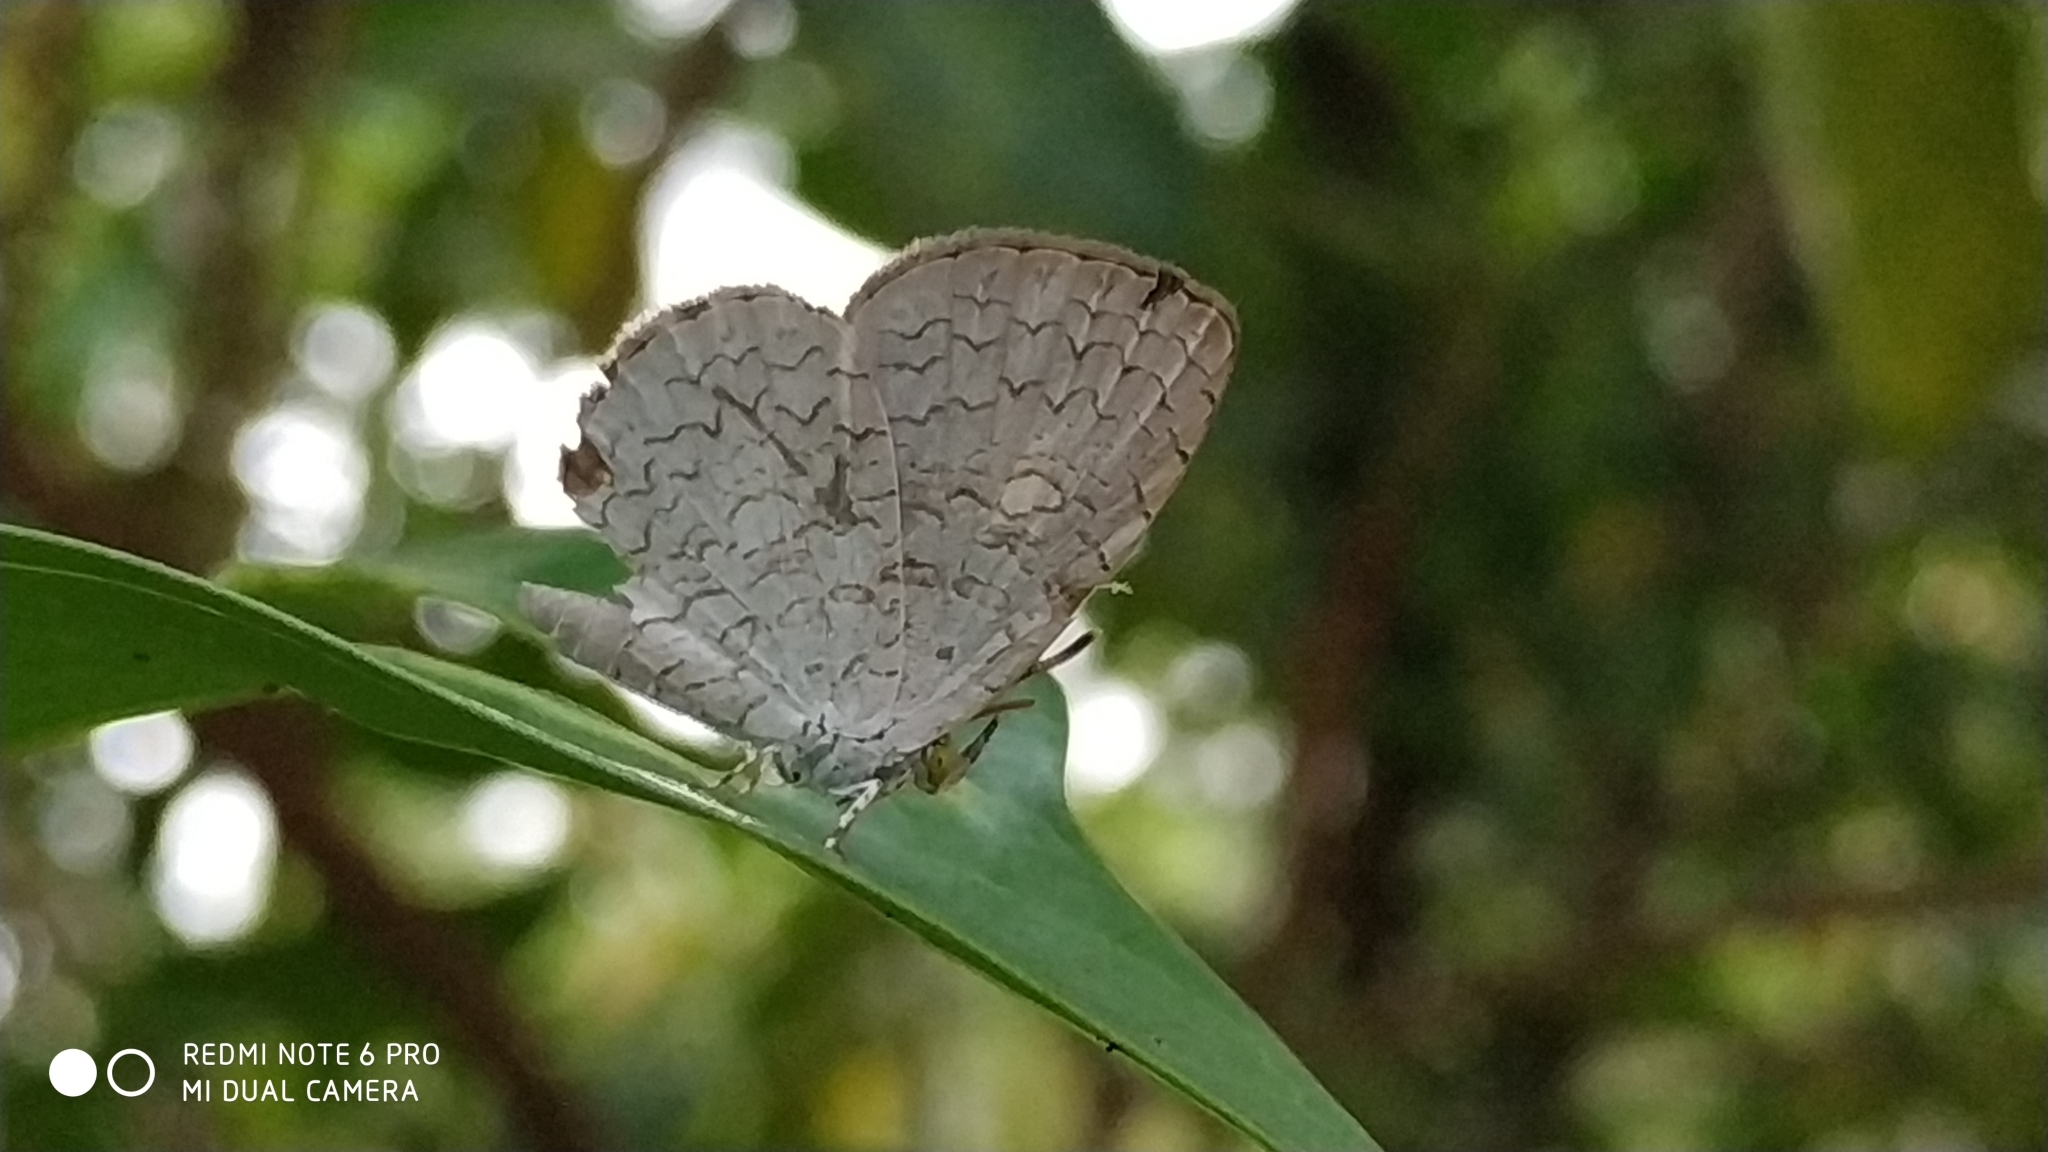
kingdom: Animalia
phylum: Arthropoda
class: Insecta
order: Lepidoptera
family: Lycaenidae
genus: Spalgis
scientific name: Spalgis epius
